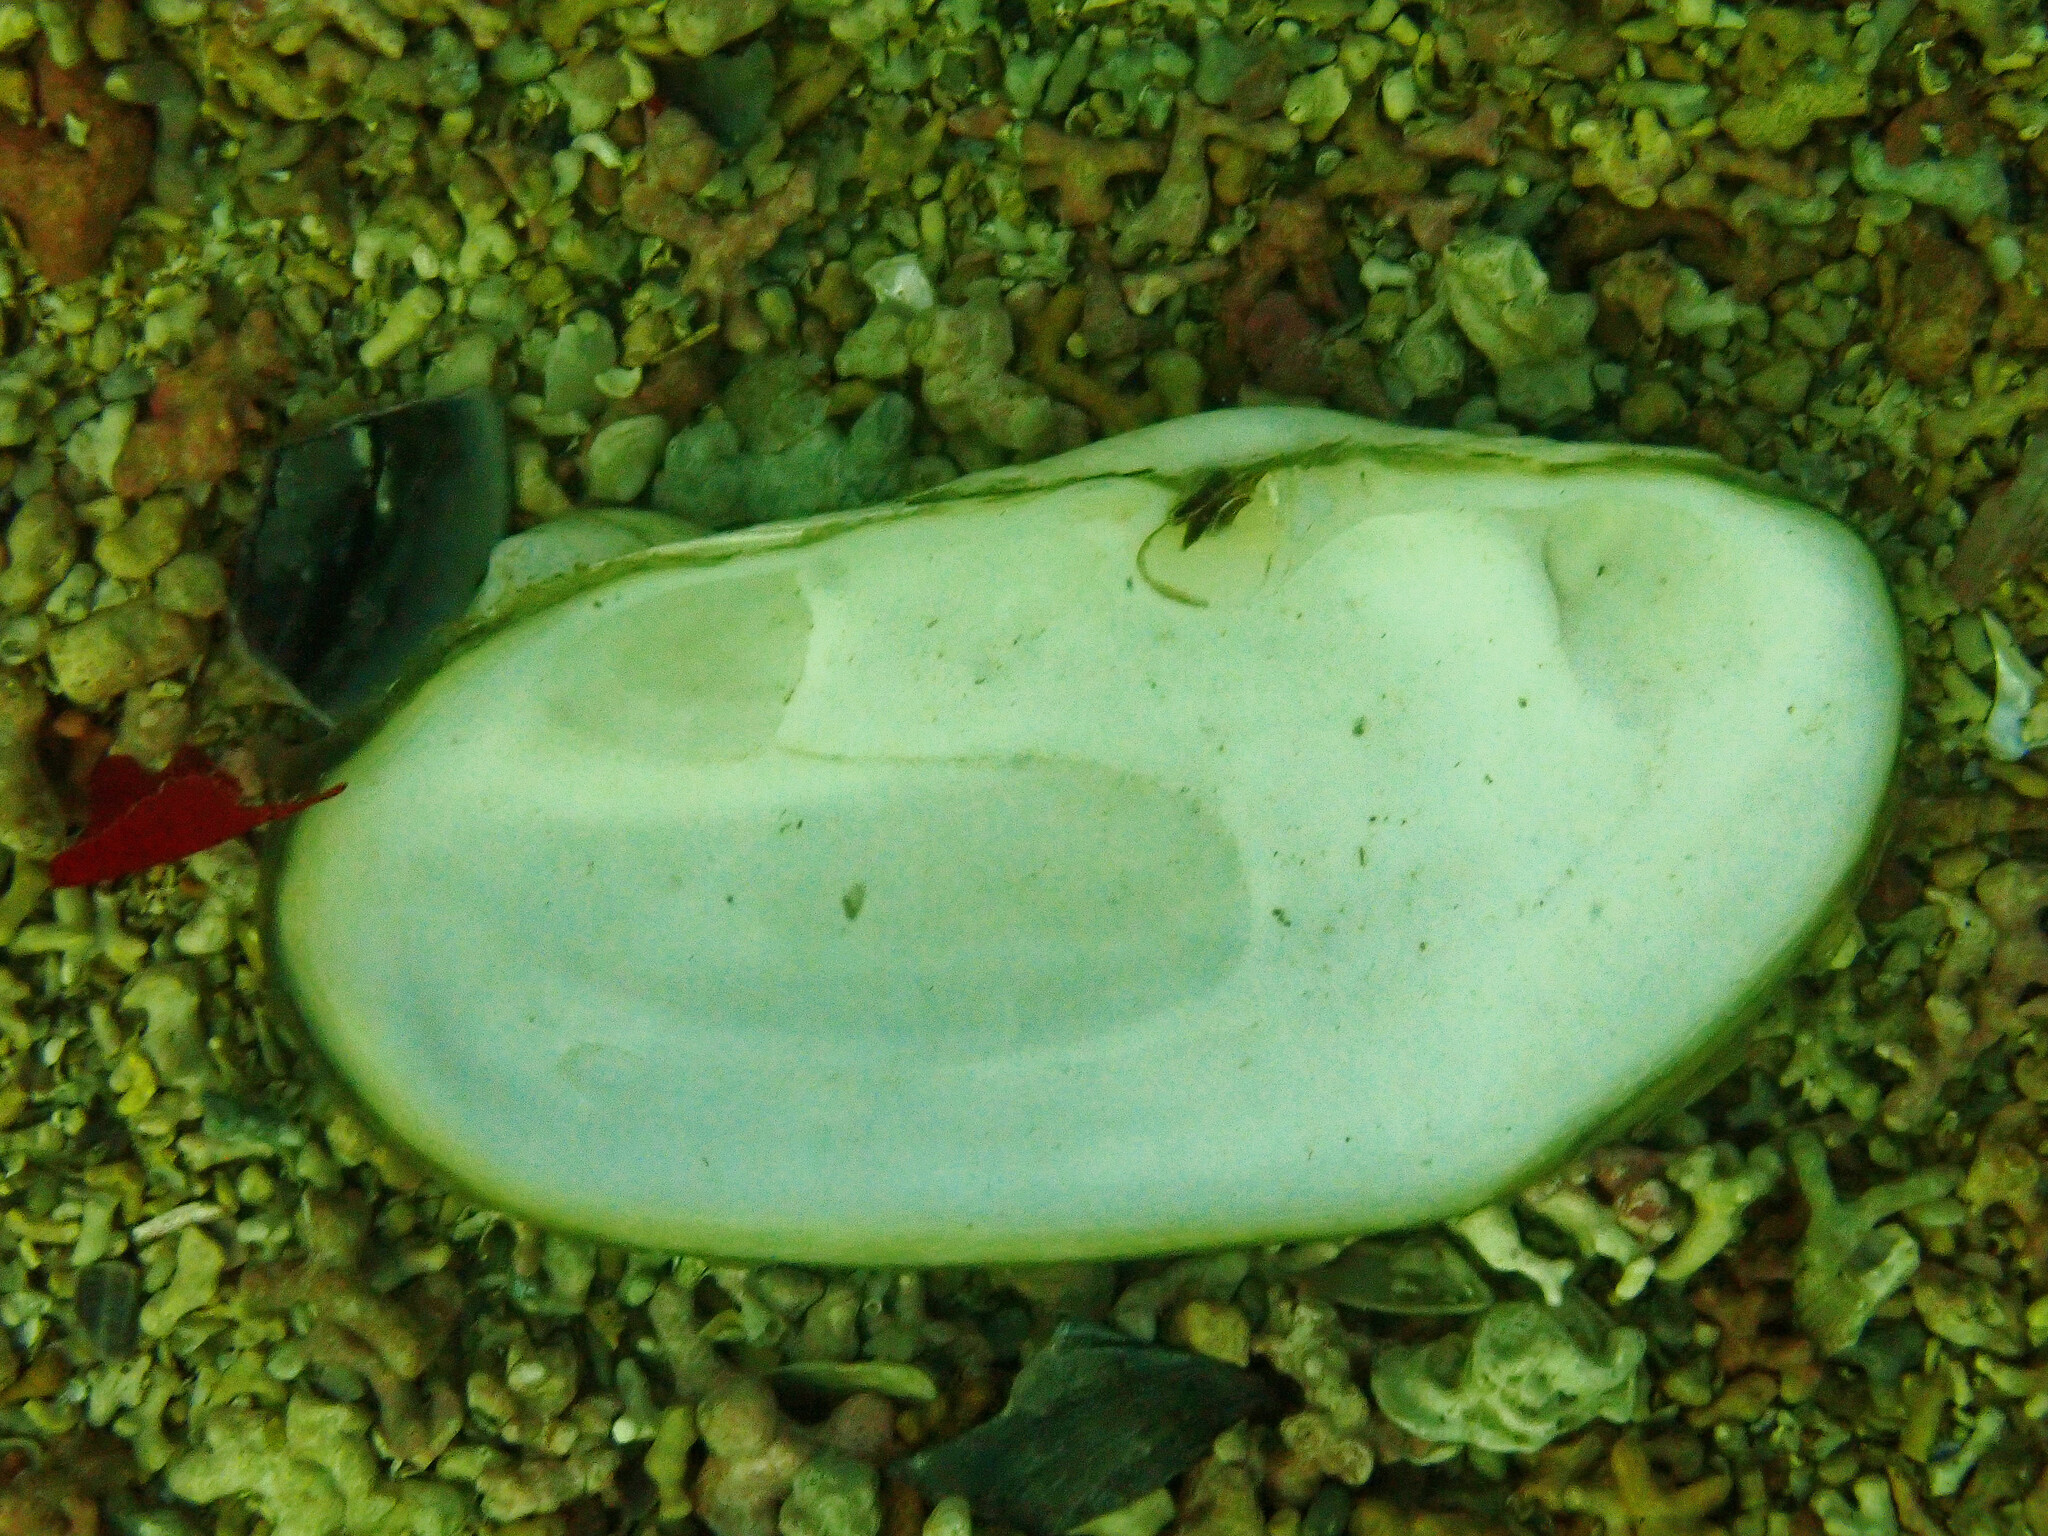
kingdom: Animalia
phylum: Mollusca
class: Bivalvia
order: Venerida
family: Mactridae
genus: Lutraria
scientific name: Lutraria angustior
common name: Narrow otter shell
